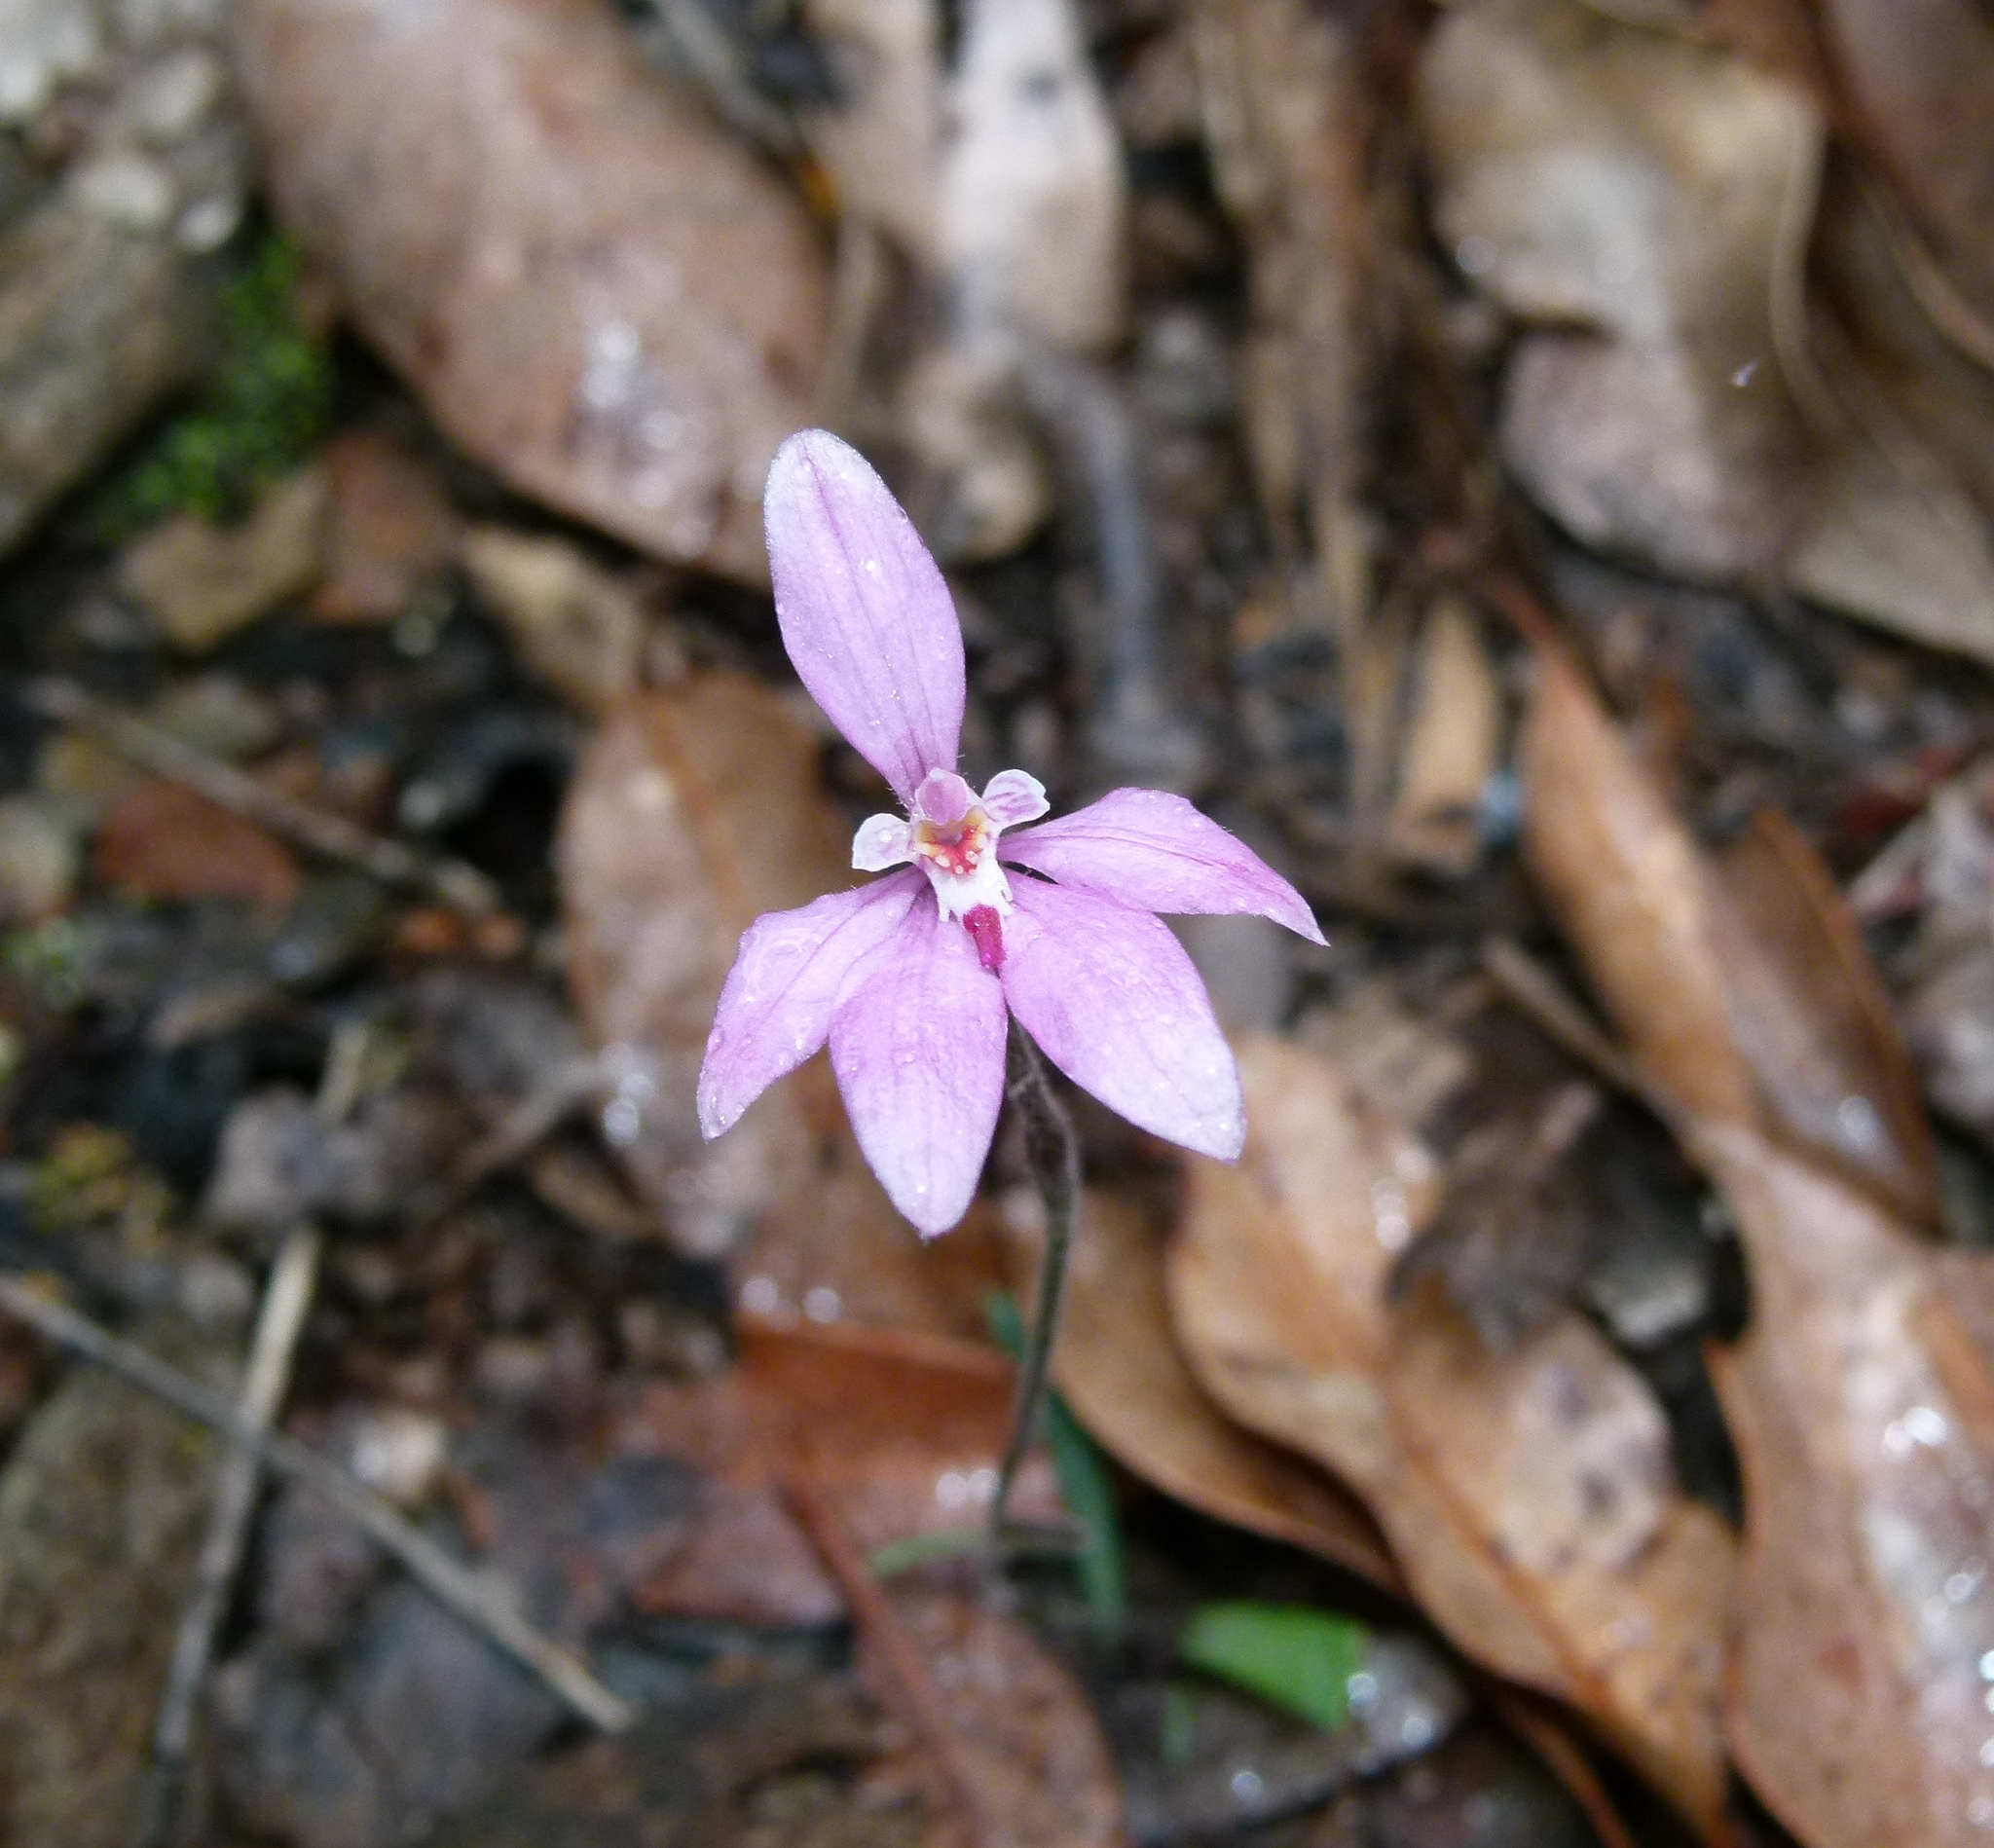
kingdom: Plantae
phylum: Tracheophyta
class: Liliopsida
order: Asparagales
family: Orchidaceae
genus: Caladenia
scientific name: Caladenia reptans
